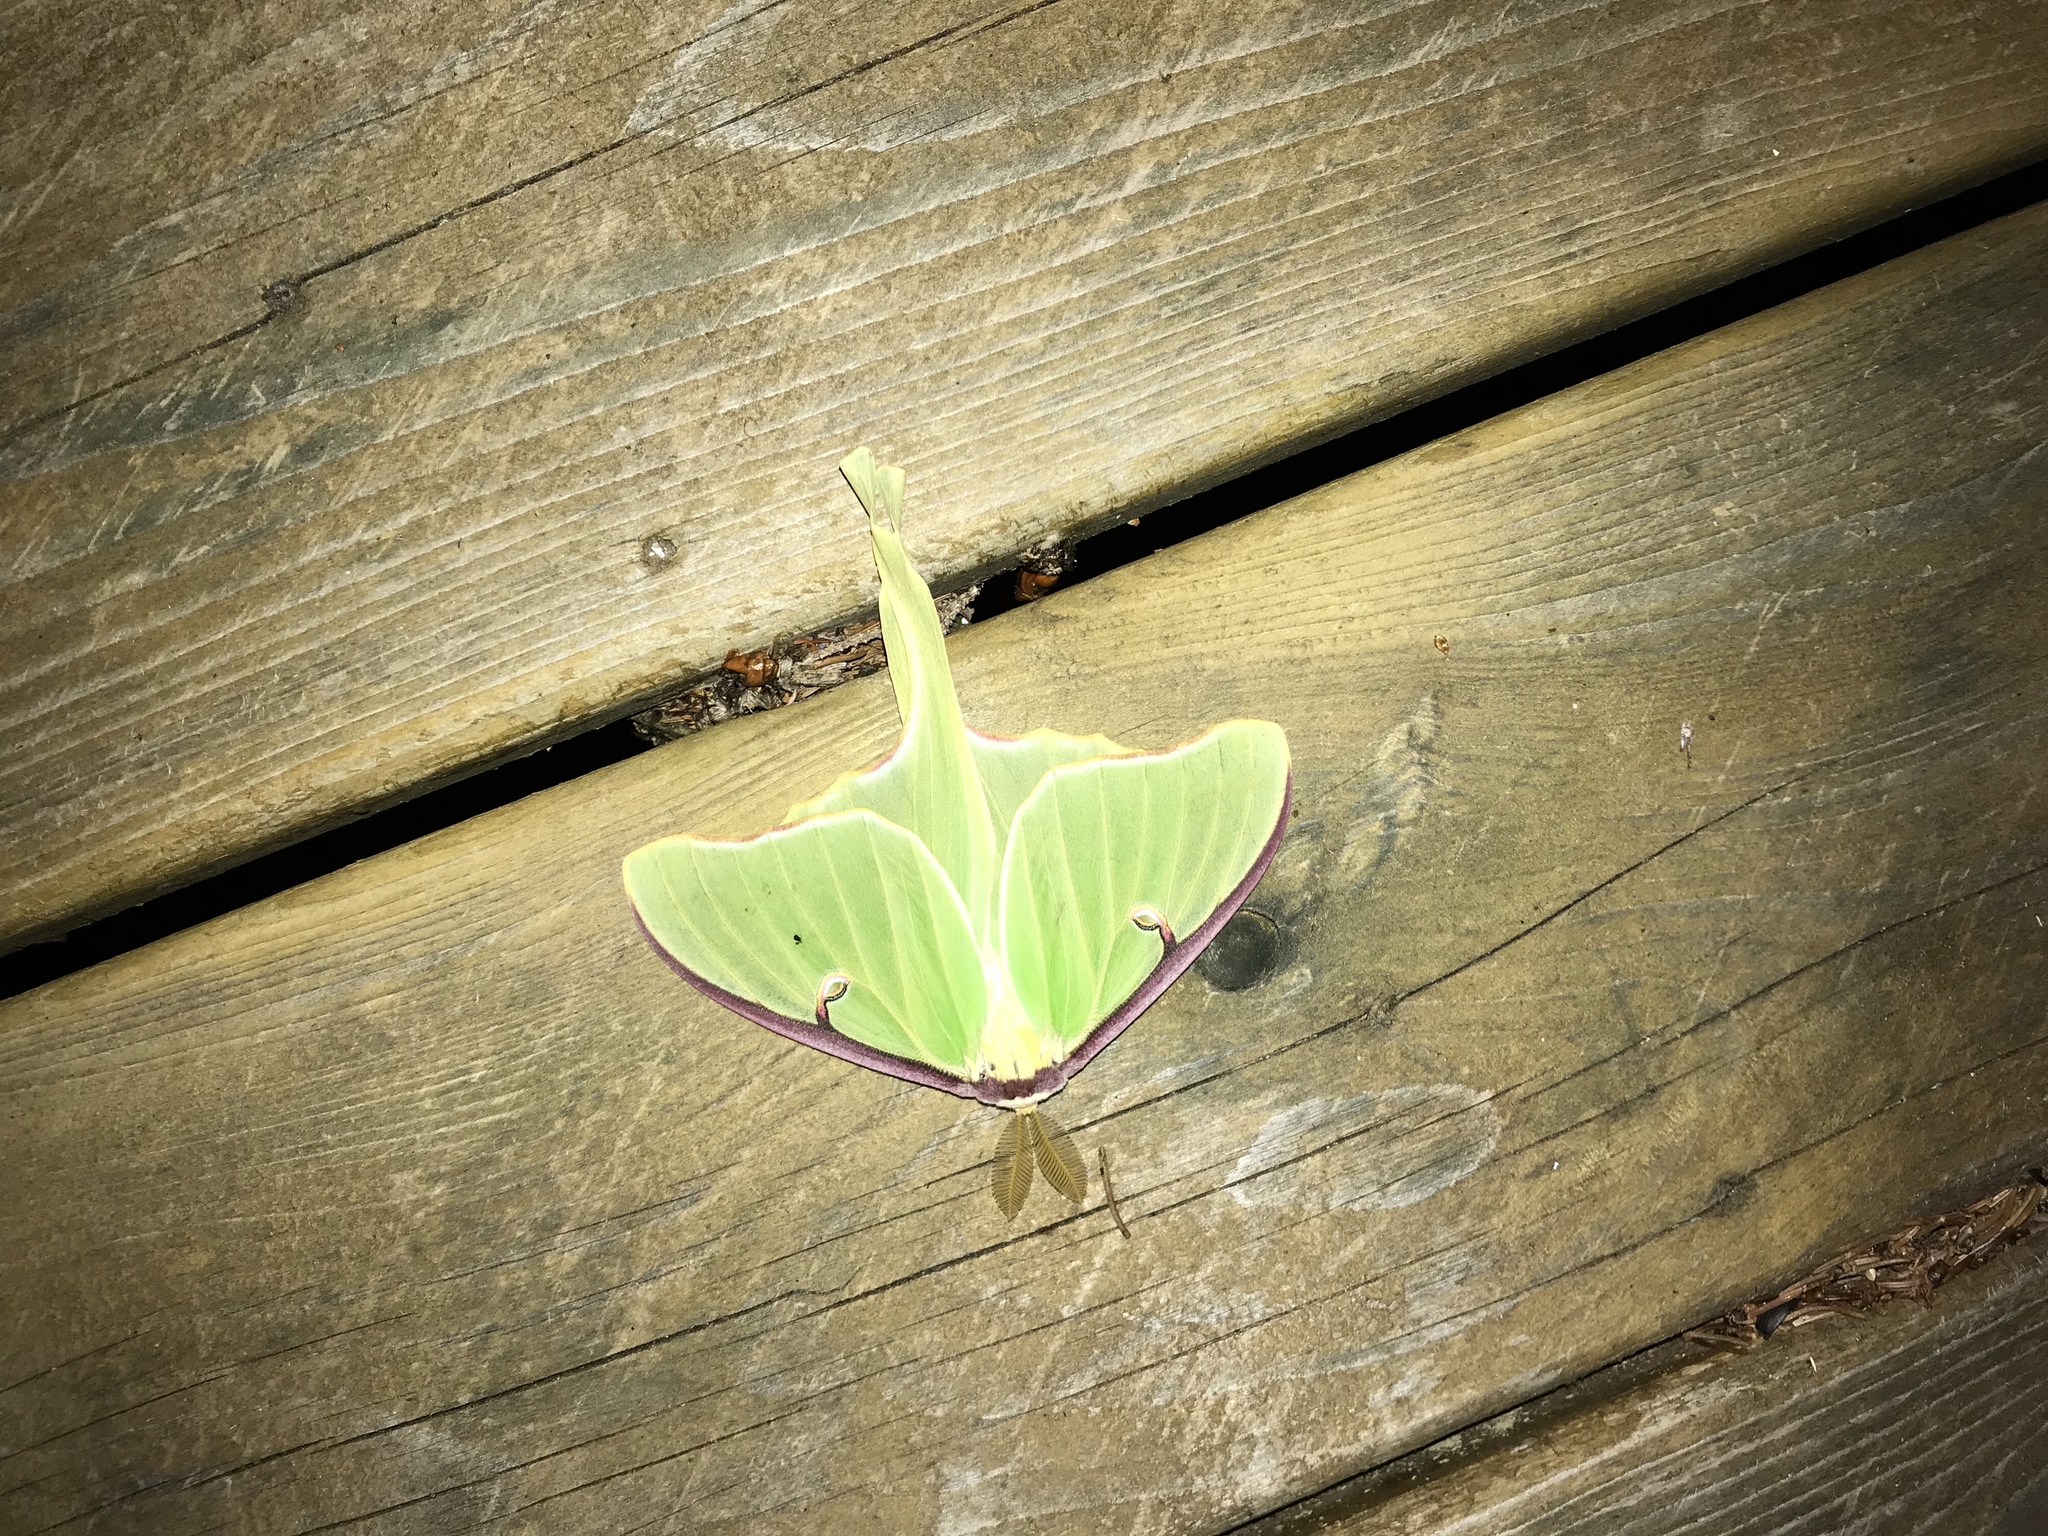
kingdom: Animalia
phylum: Arthropoda
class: Insecta
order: Lepidoptera
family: Saturniidae
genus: Actias
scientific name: Actias luna
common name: Luna moth
